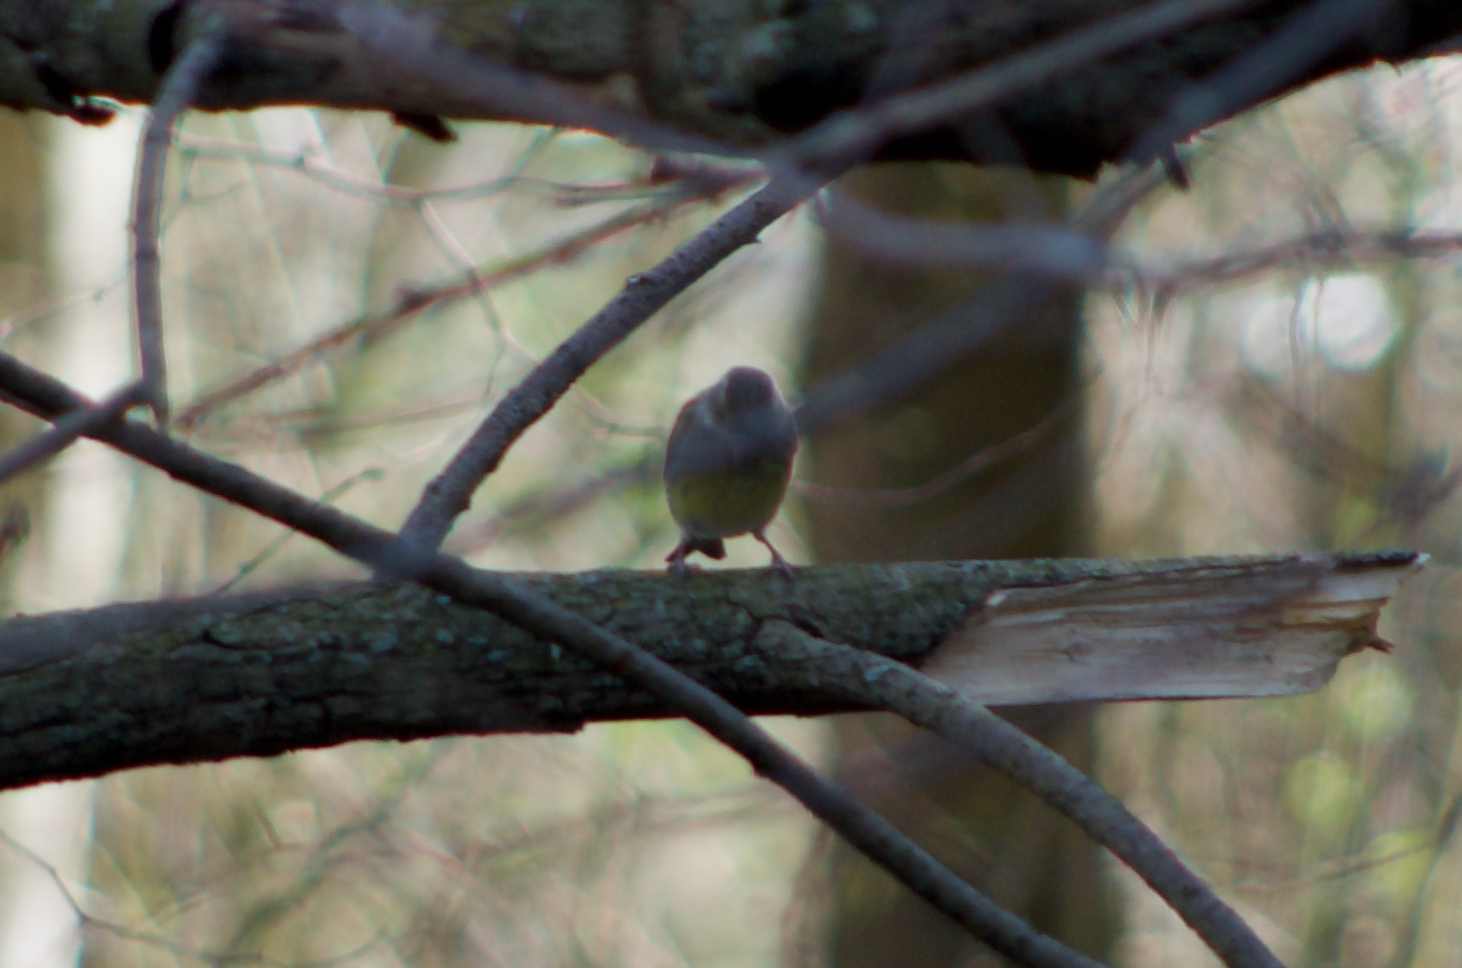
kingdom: Plantae
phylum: Tracheophyta
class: Liliopsida
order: Poales
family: Poaceae
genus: Chloris
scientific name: Chloris chloris
